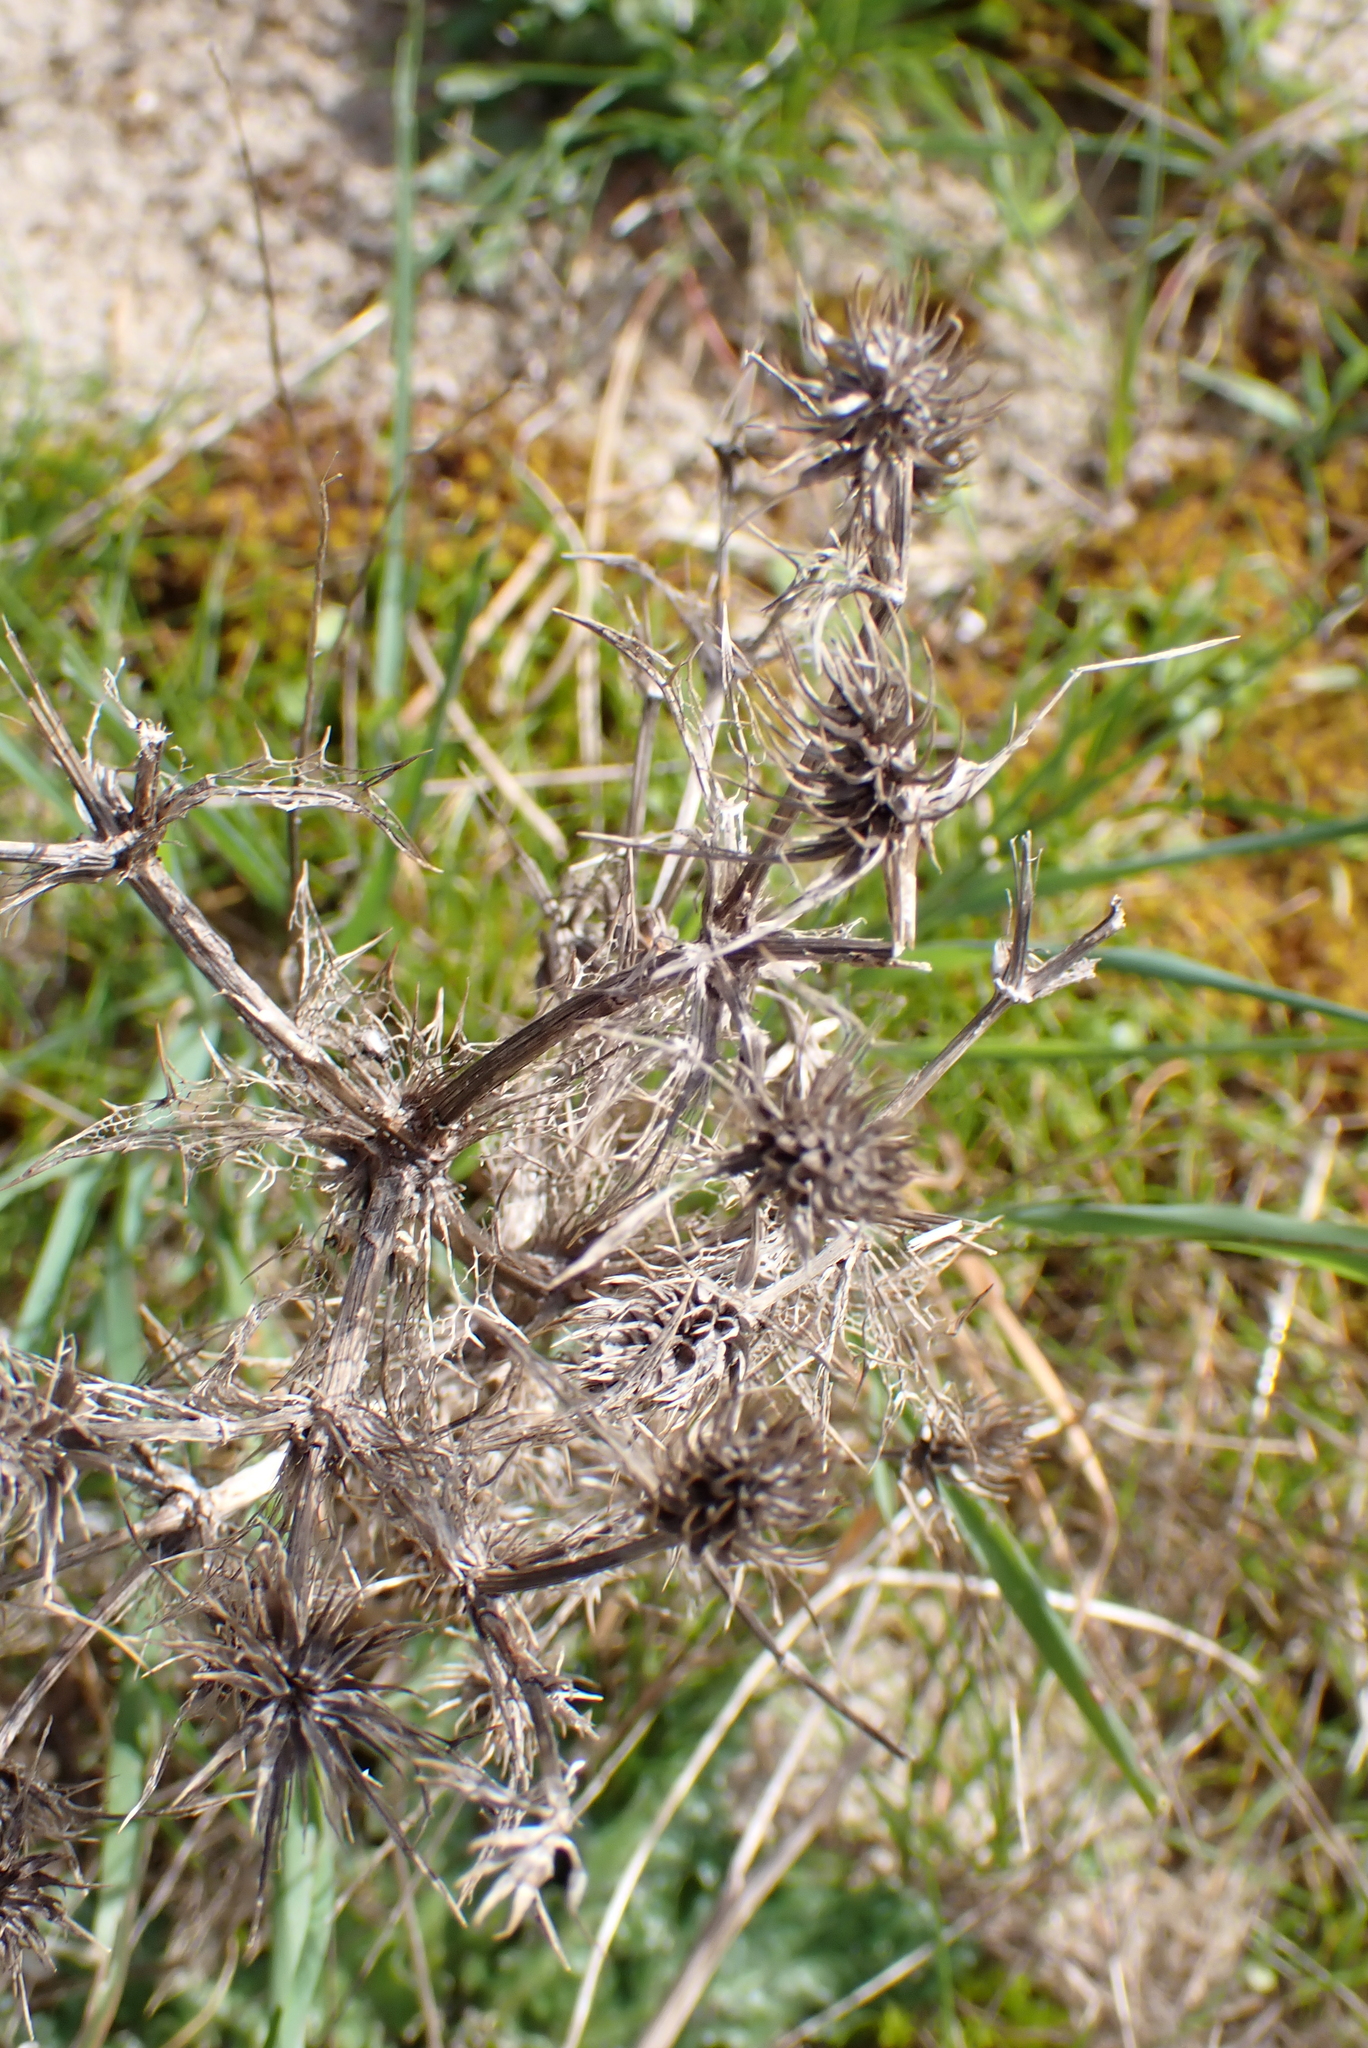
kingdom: Plantae
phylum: Tracheophyta
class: Magnoliopsida
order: Apiales
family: Apiaceae
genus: Eryngium
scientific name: Eryngium campestre
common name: Field eryngo
